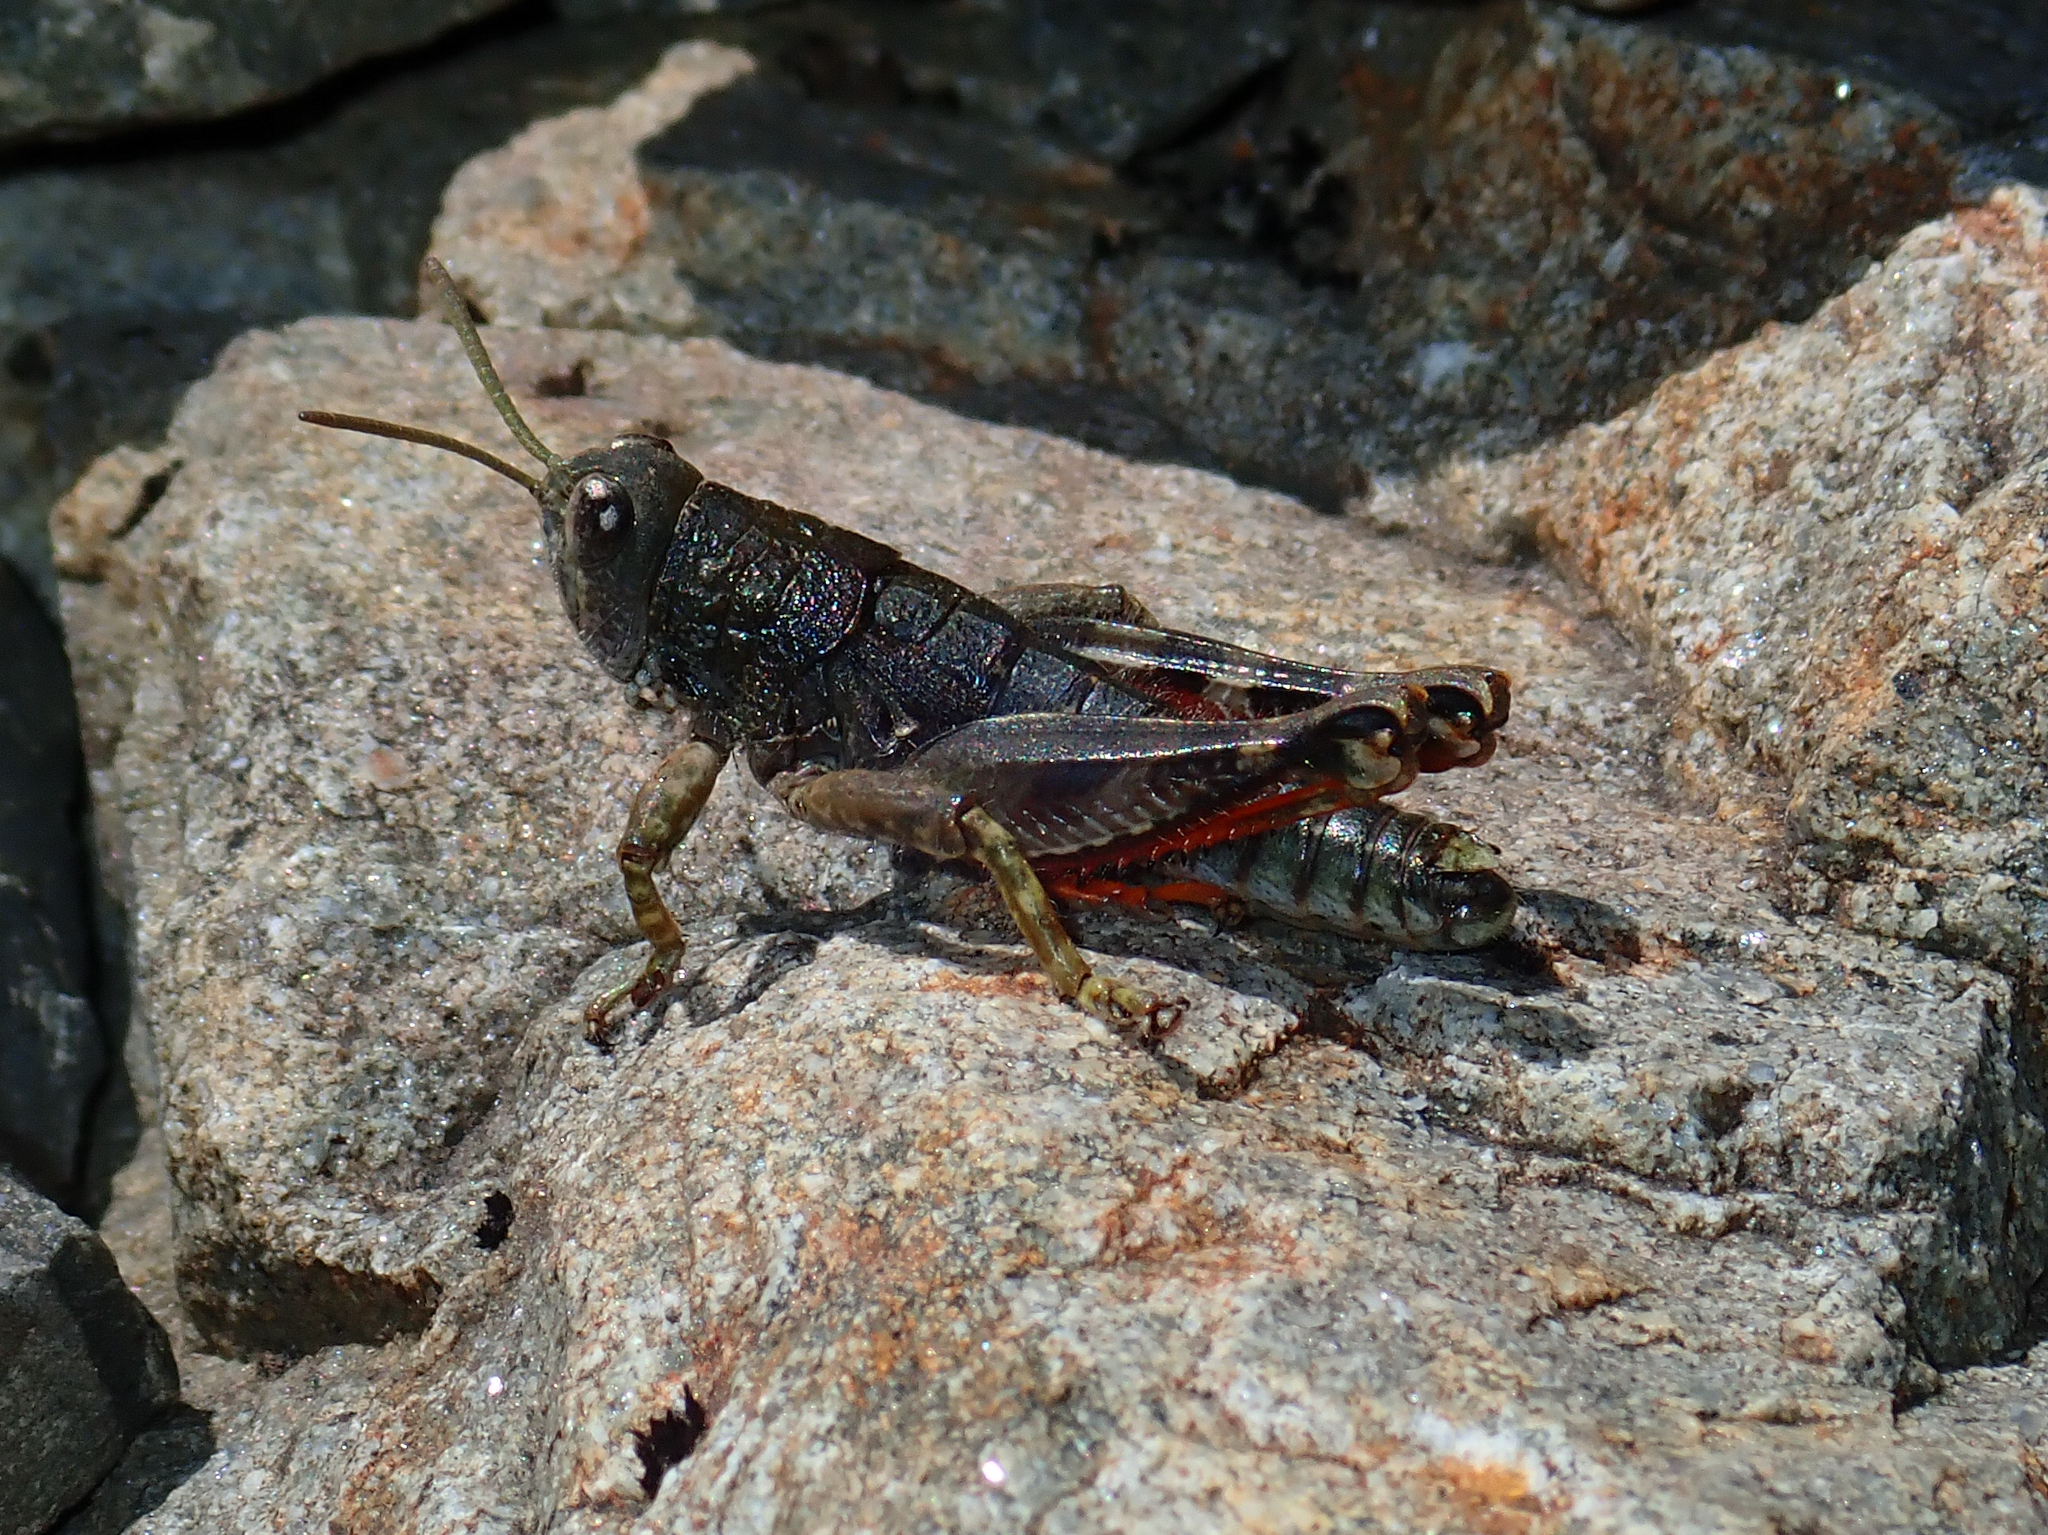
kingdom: Animalia
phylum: Arthropoda
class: Insecta
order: Orthoptera
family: Acrididae
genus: Sigaus
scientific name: Sigaus
